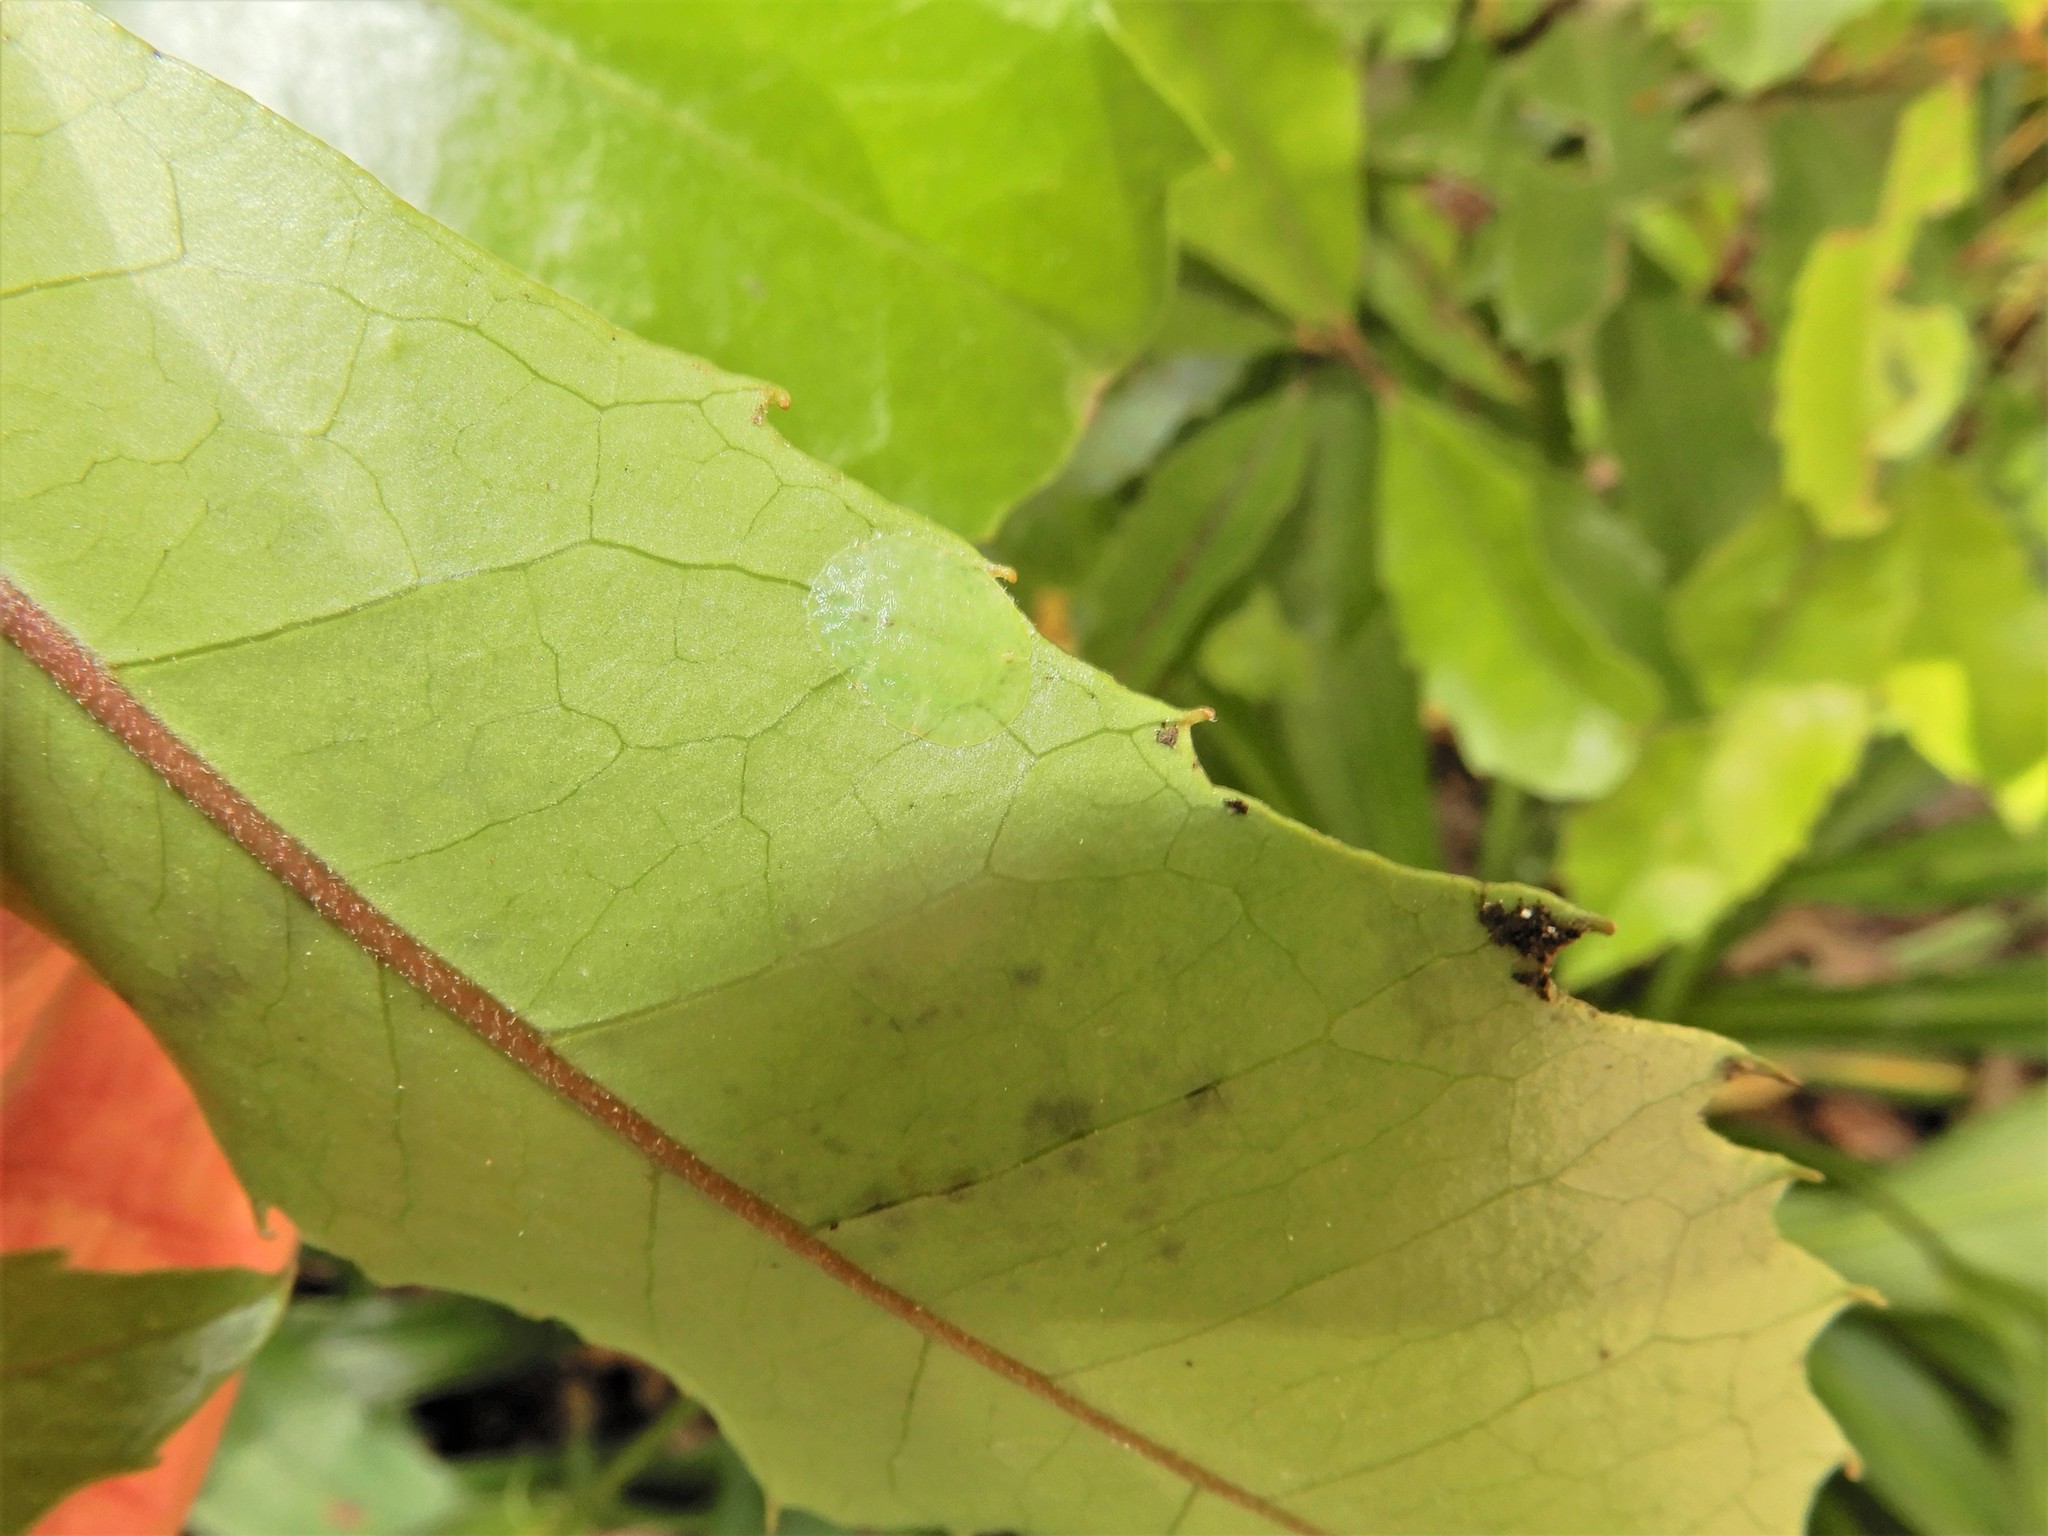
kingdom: Plantae
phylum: Tracheophyta
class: Magnoliopsida
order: Laurales
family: Monimiaceae
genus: Hedycarya
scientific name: Hedycarya arborea
